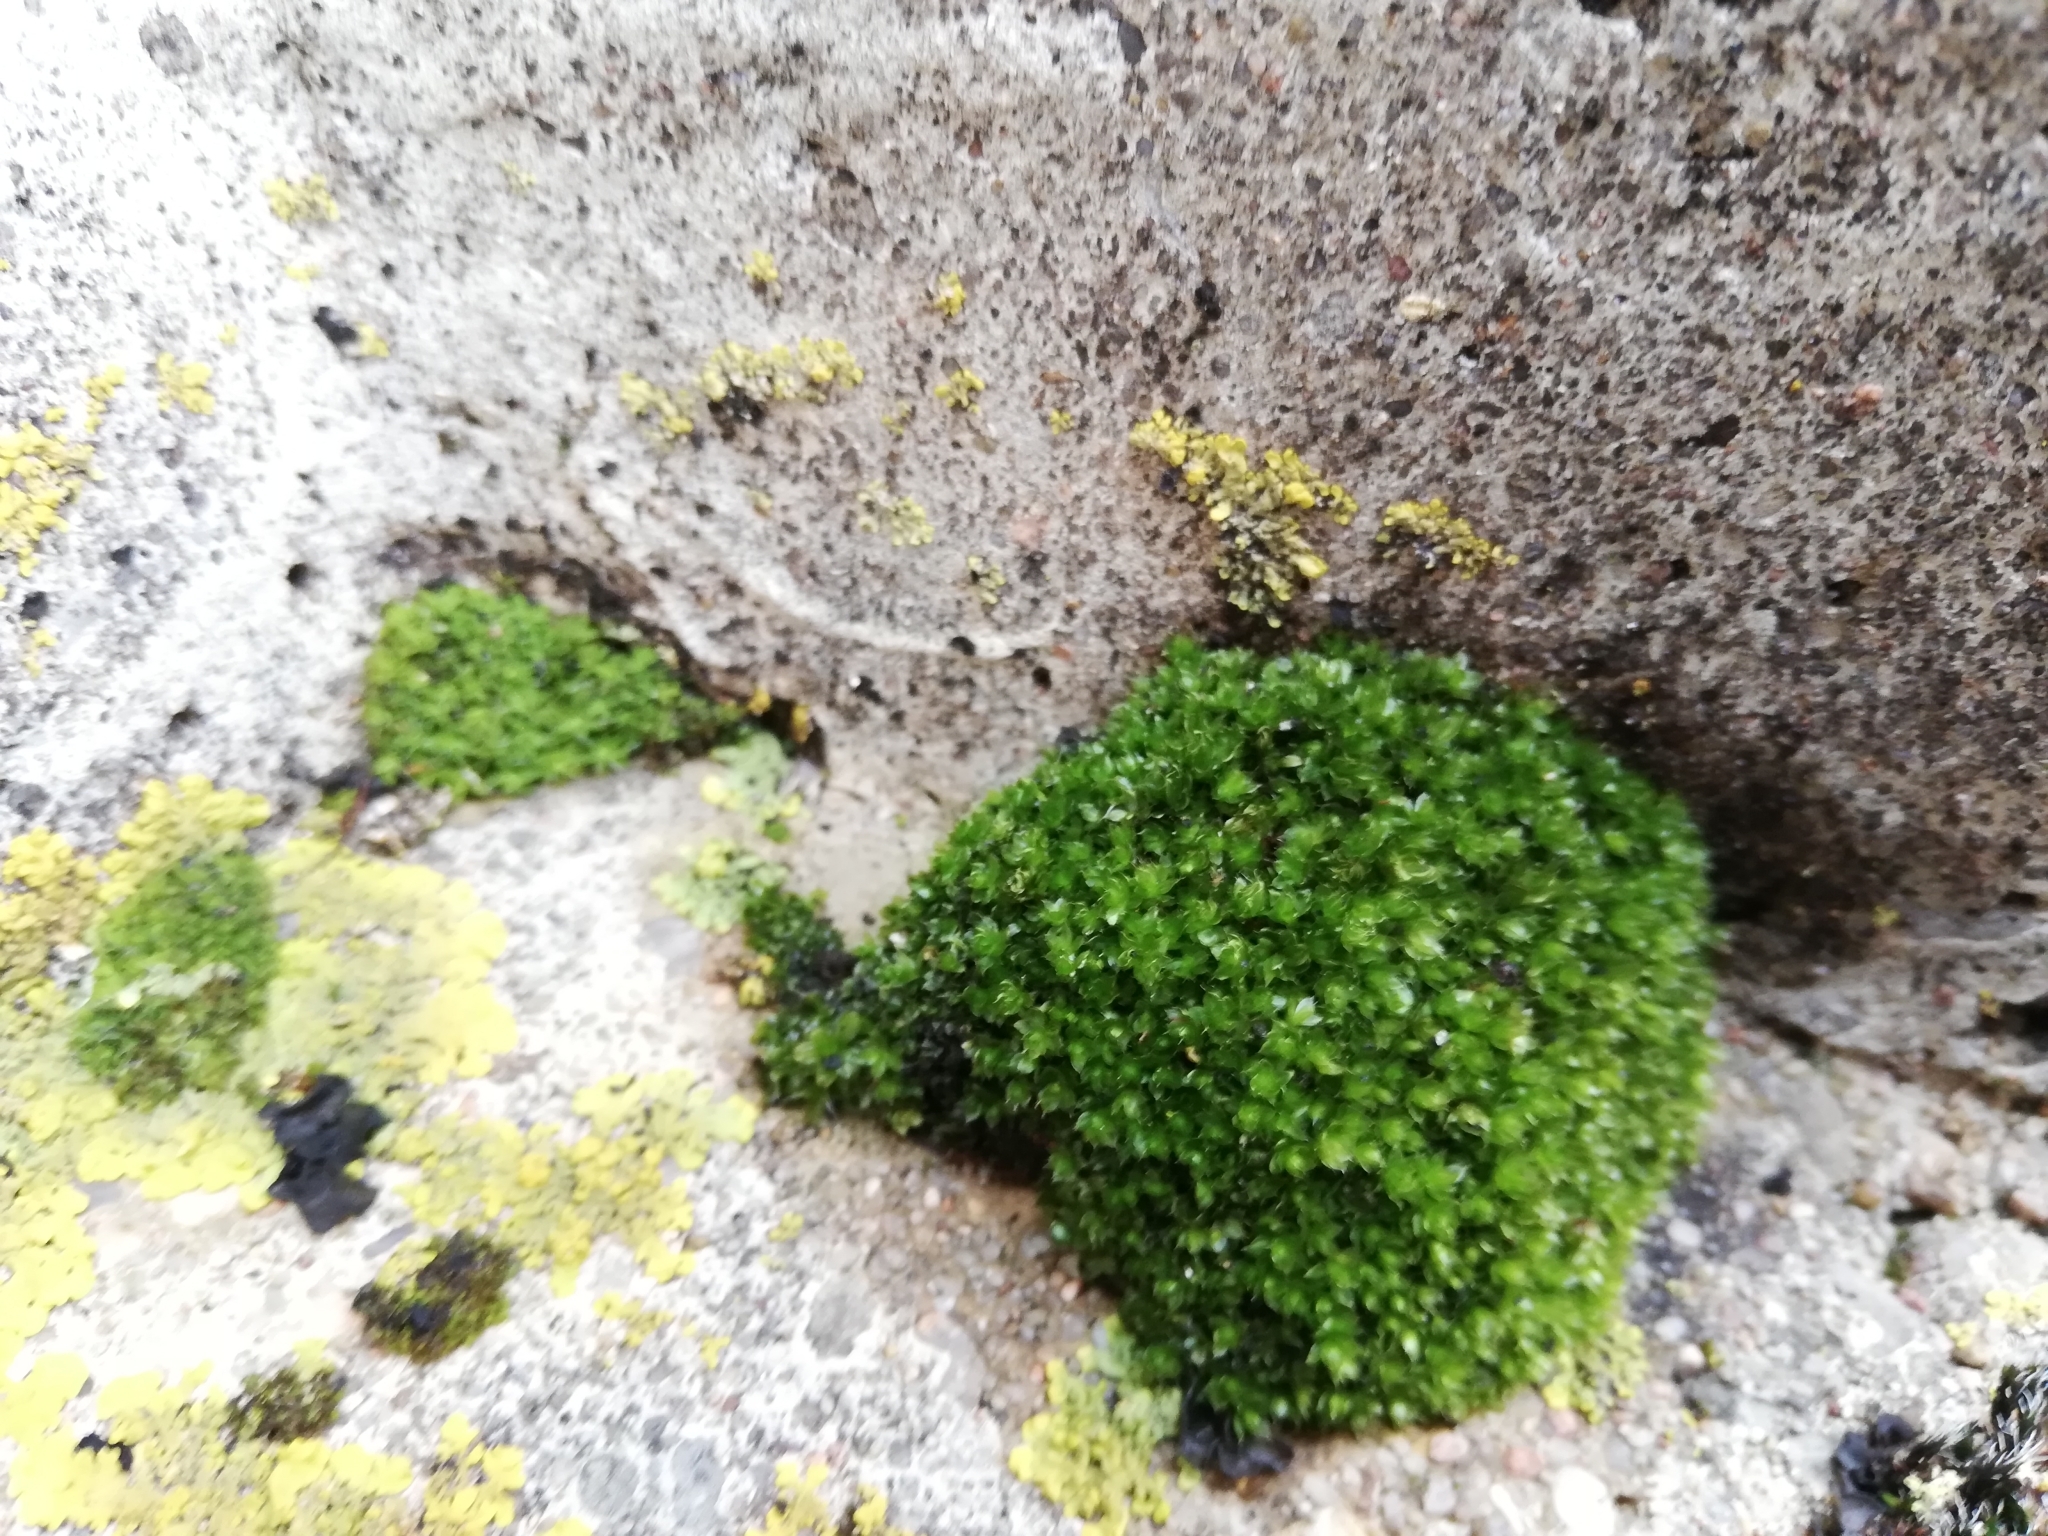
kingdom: Plantae
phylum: Bryophyta
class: Bryopsida
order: Bryales
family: Bryaceae
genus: Rosulabryum
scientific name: Rosulabryum capillare
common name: Capillary thread-moss
